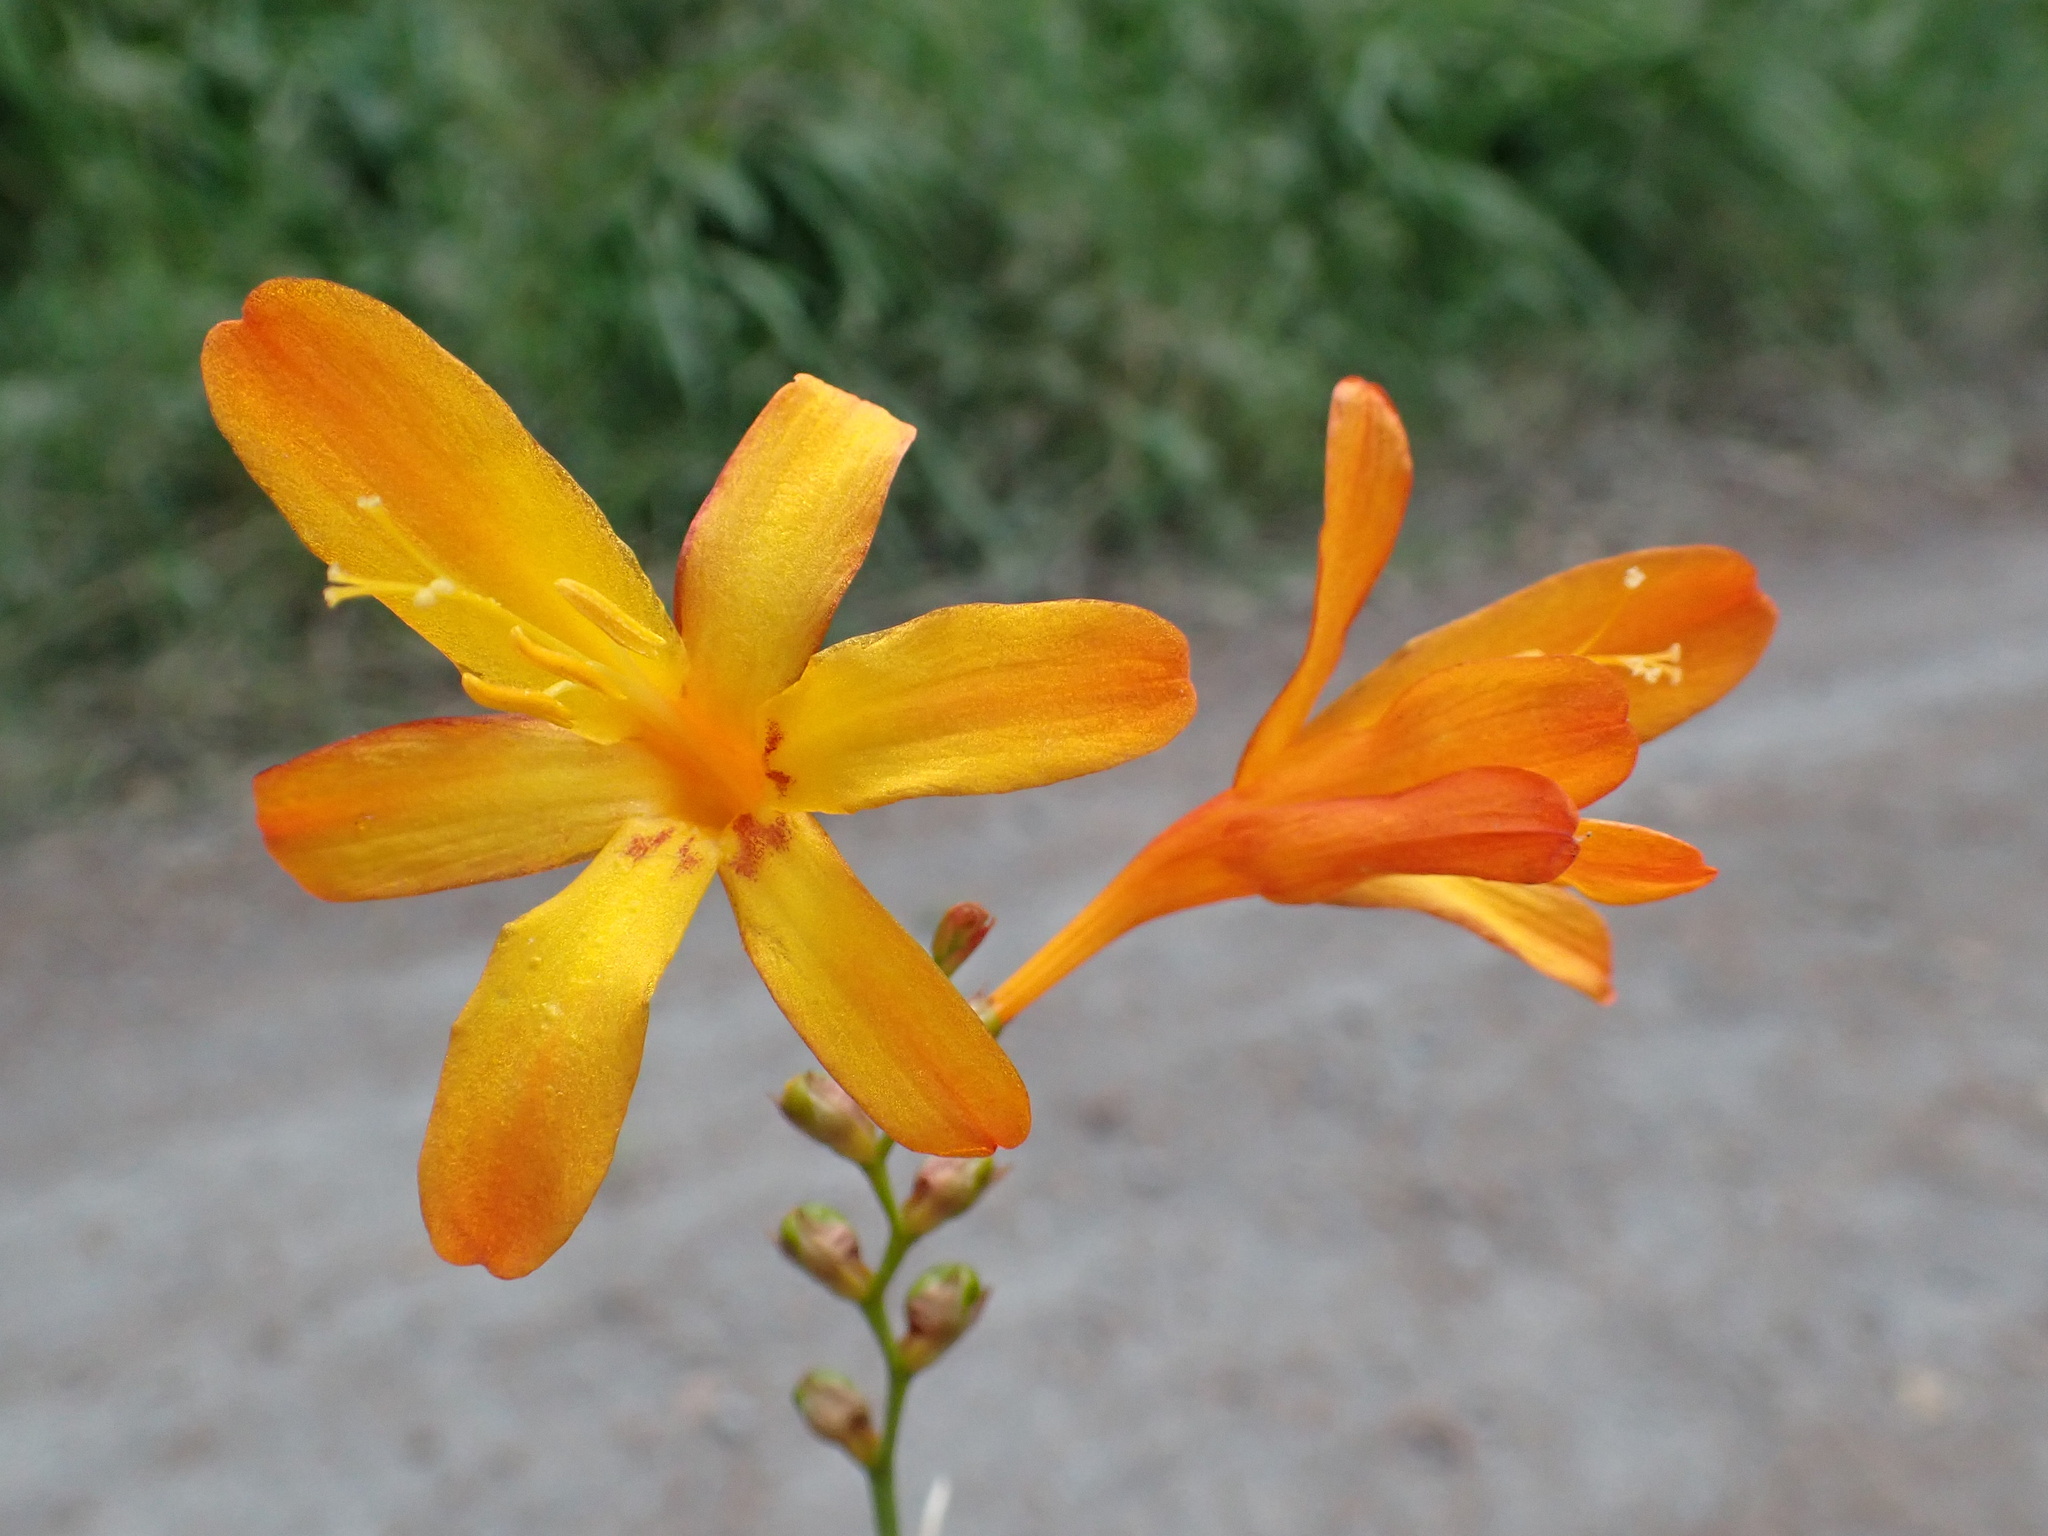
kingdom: Plantae
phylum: Tracheophyta
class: Liliopsida
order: Asparagales
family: Iridaceae
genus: Crocosmia
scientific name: Crocosmia crocosmiiflora
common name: Montbretia
